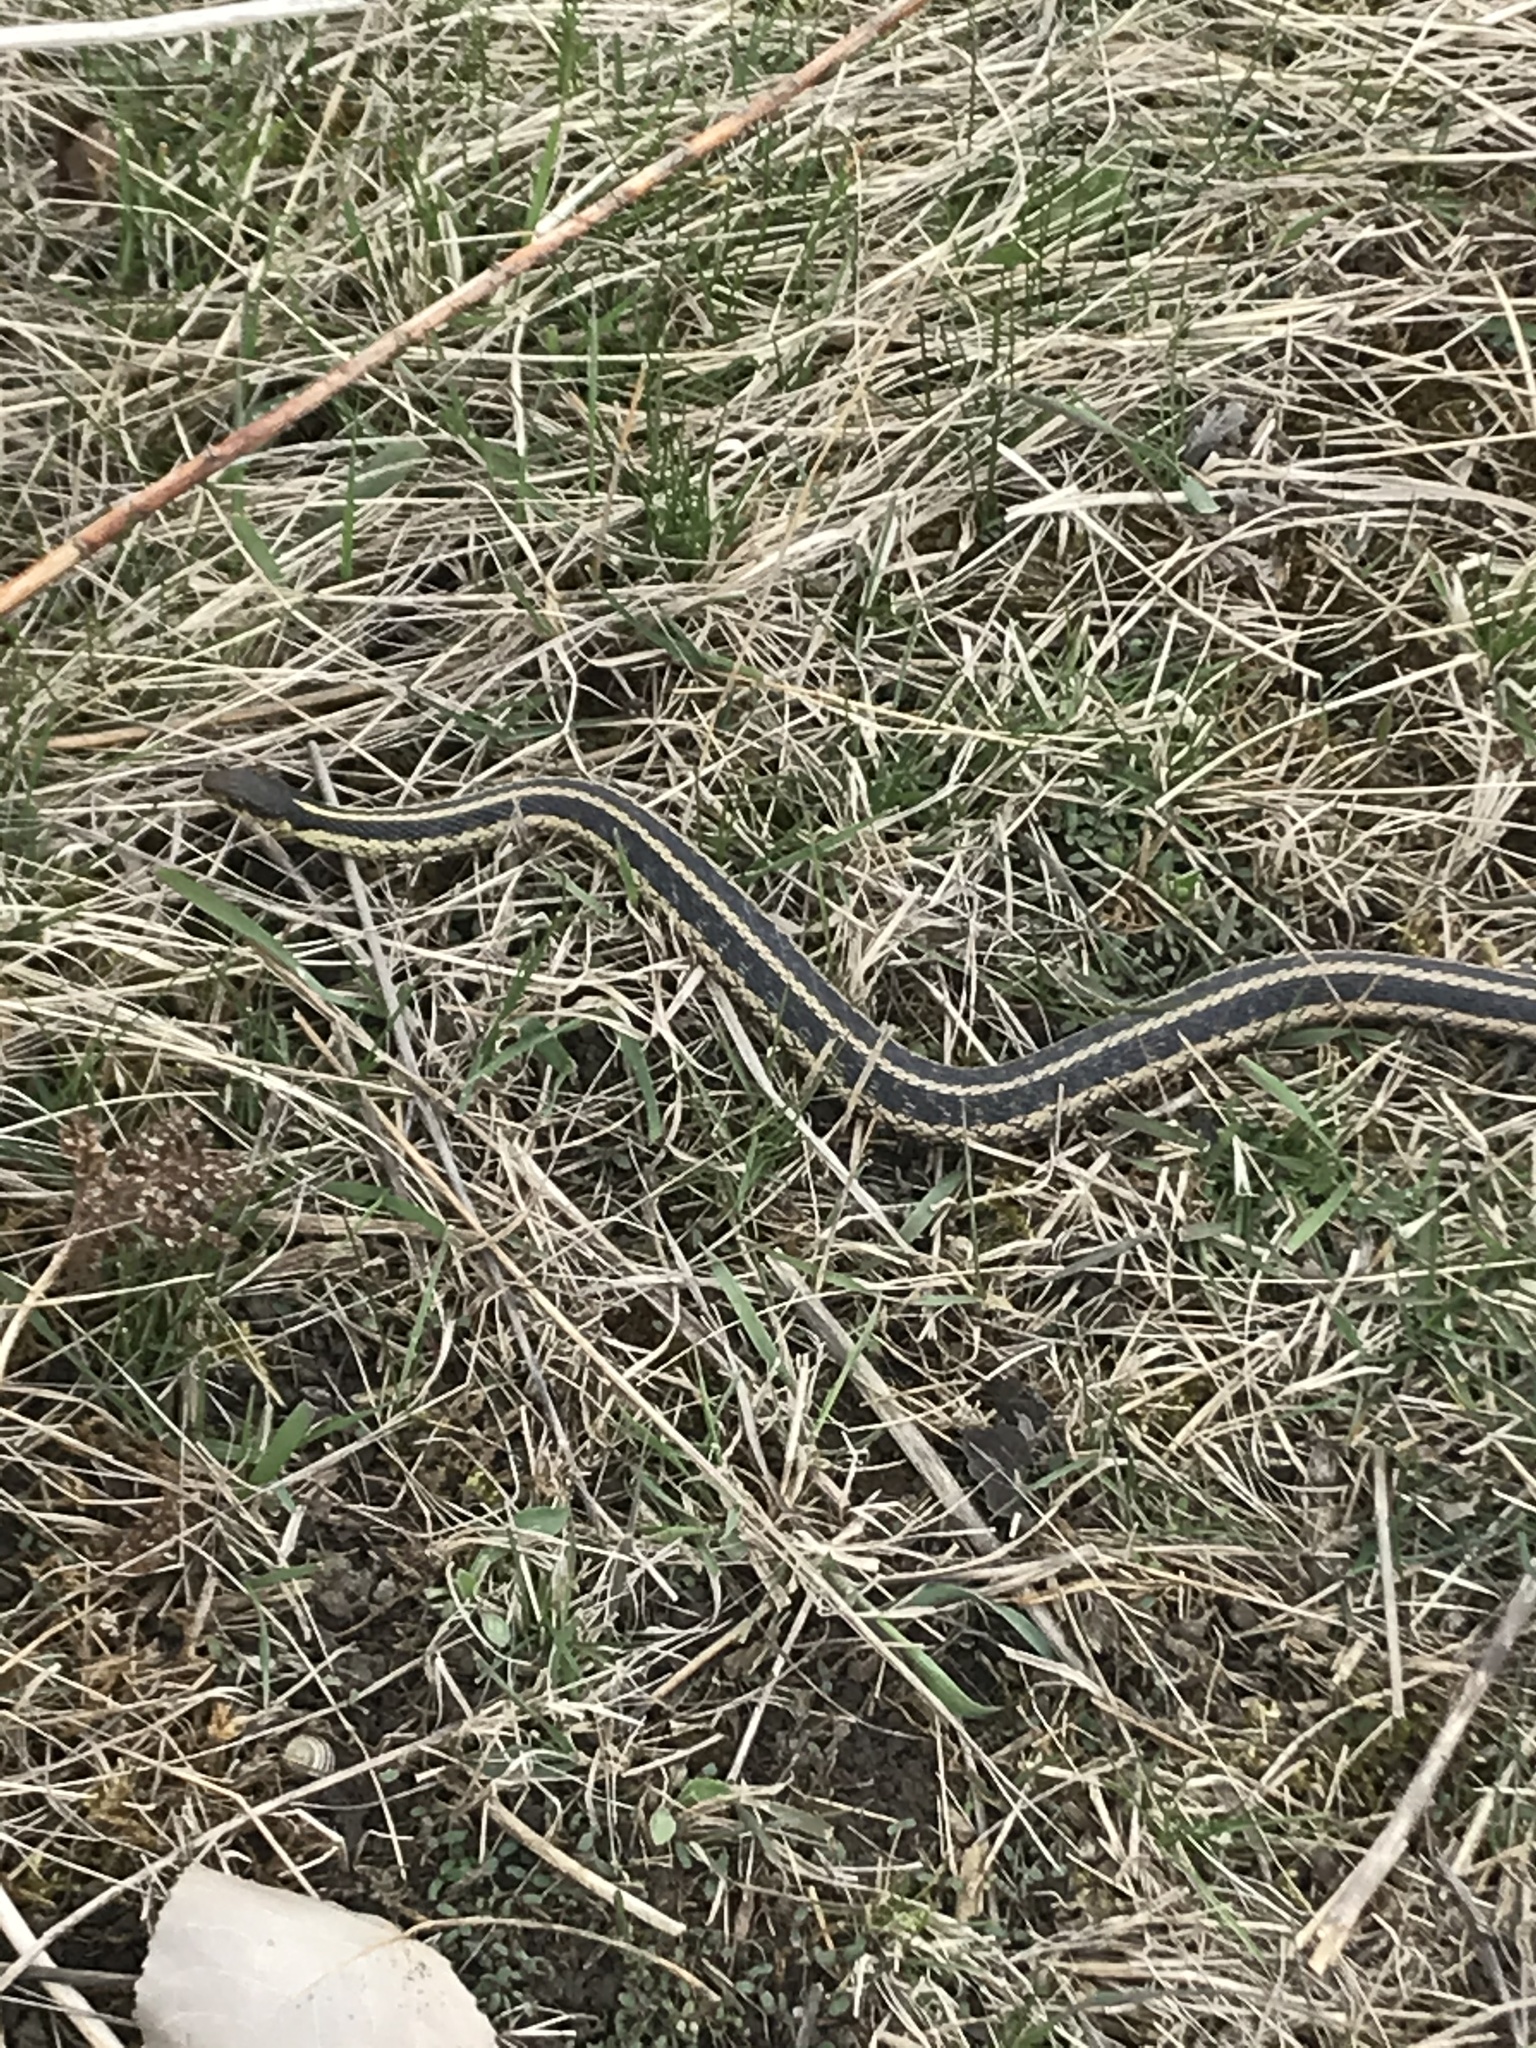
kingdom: Animalia
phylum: Chordata
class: Squamata
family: Colubridae
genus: Thamnophis
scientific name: Thamnophis sirtalis
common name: Common garter snake
